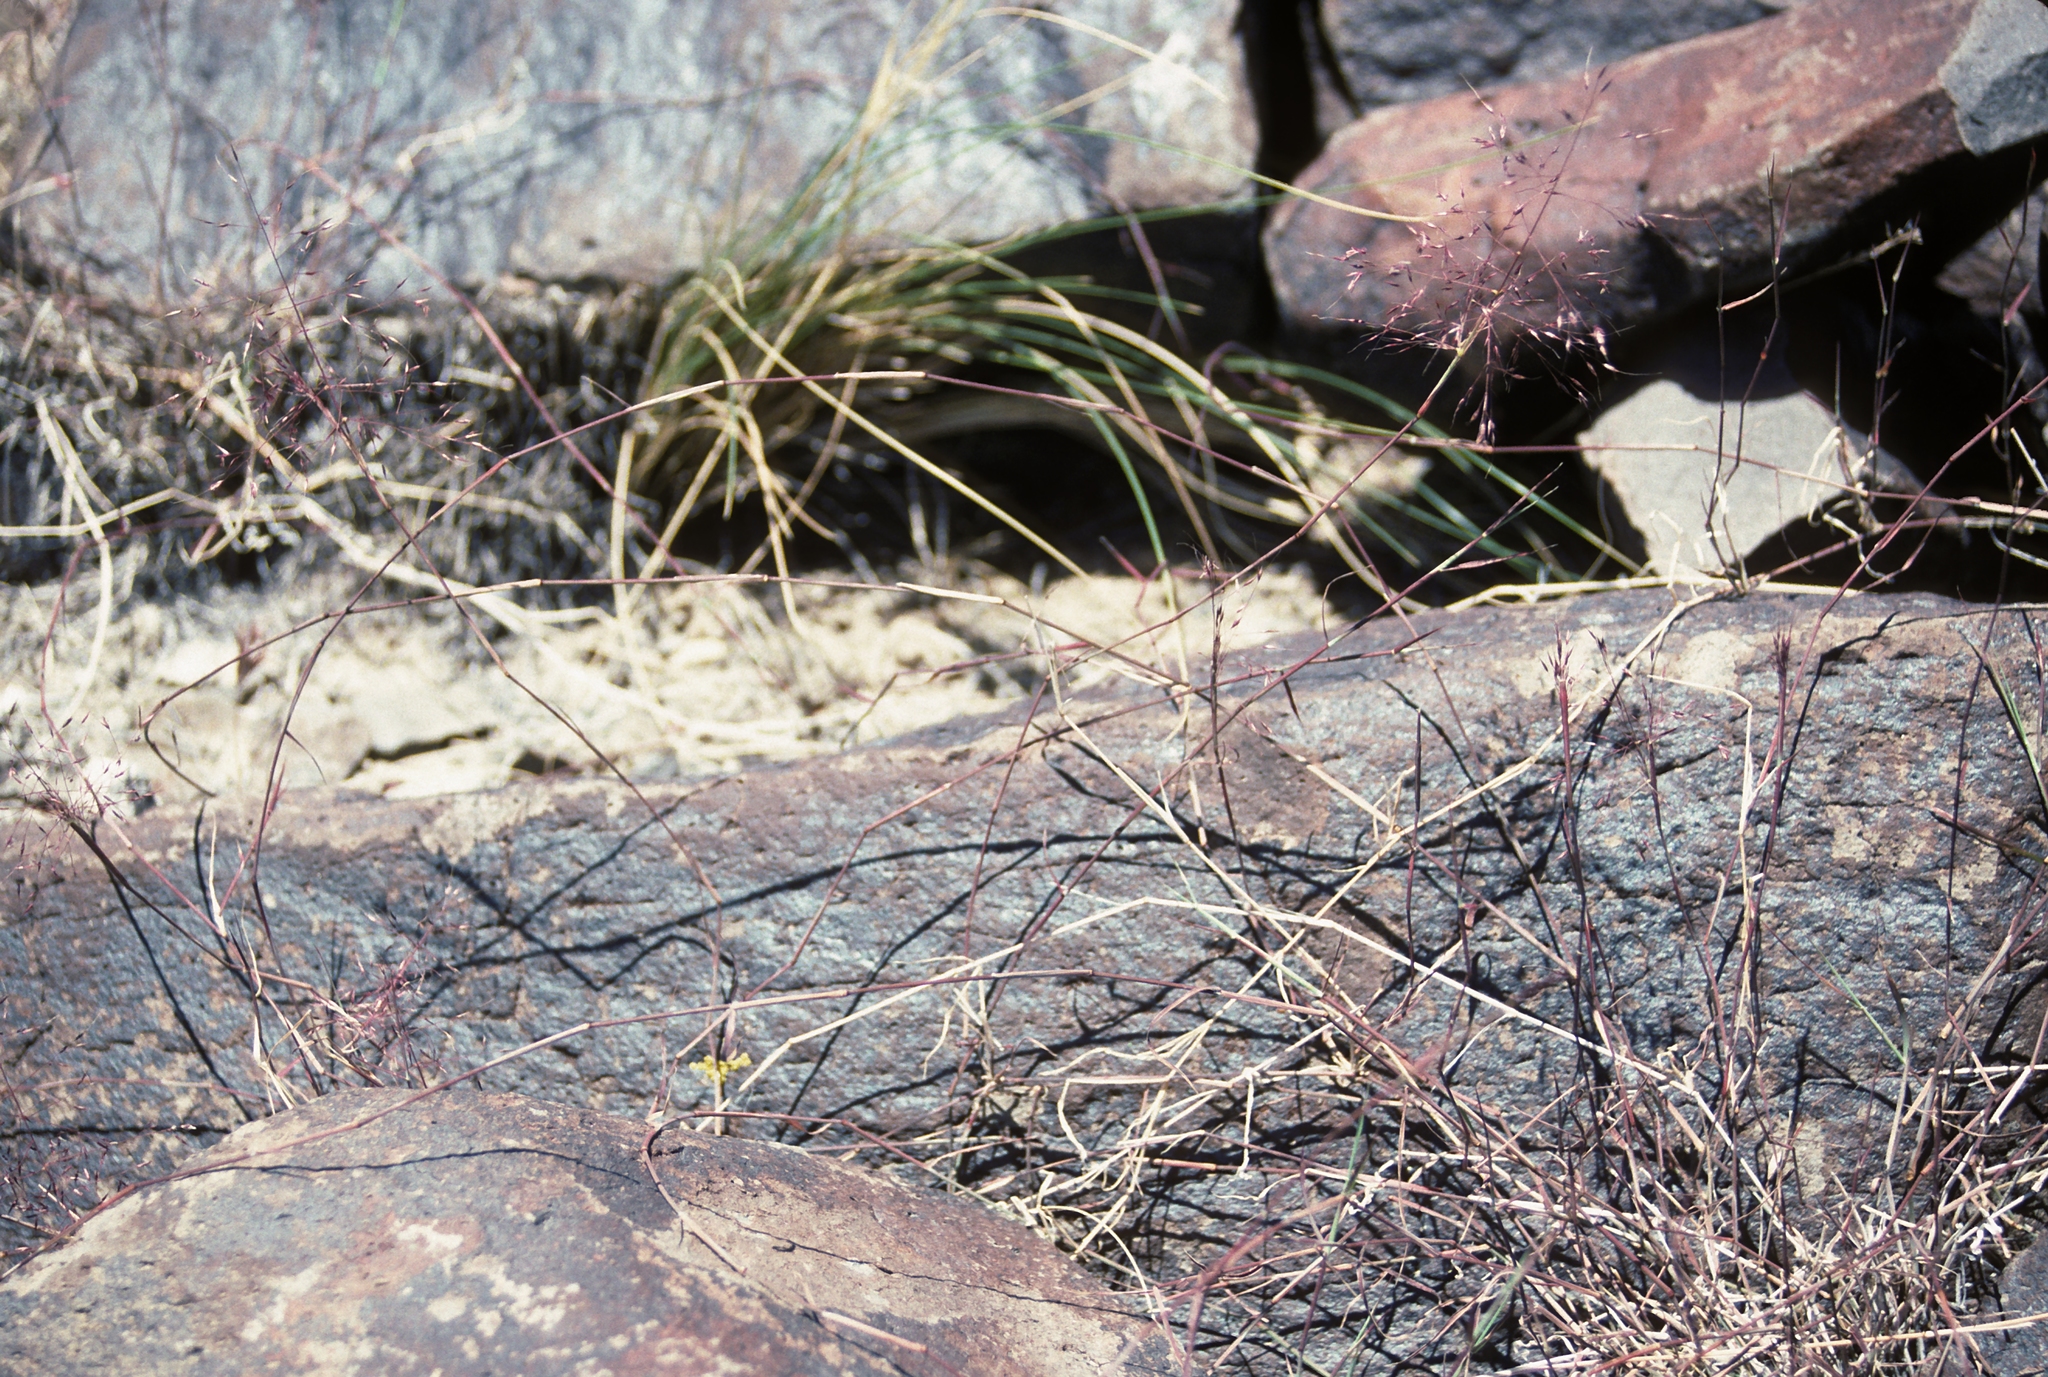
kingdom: Plantae
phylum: Tracheophyta
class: Liliopsida
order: Poales
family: Poaceae
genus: Muhlenbergia
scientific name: Muhlenbergia porteri
